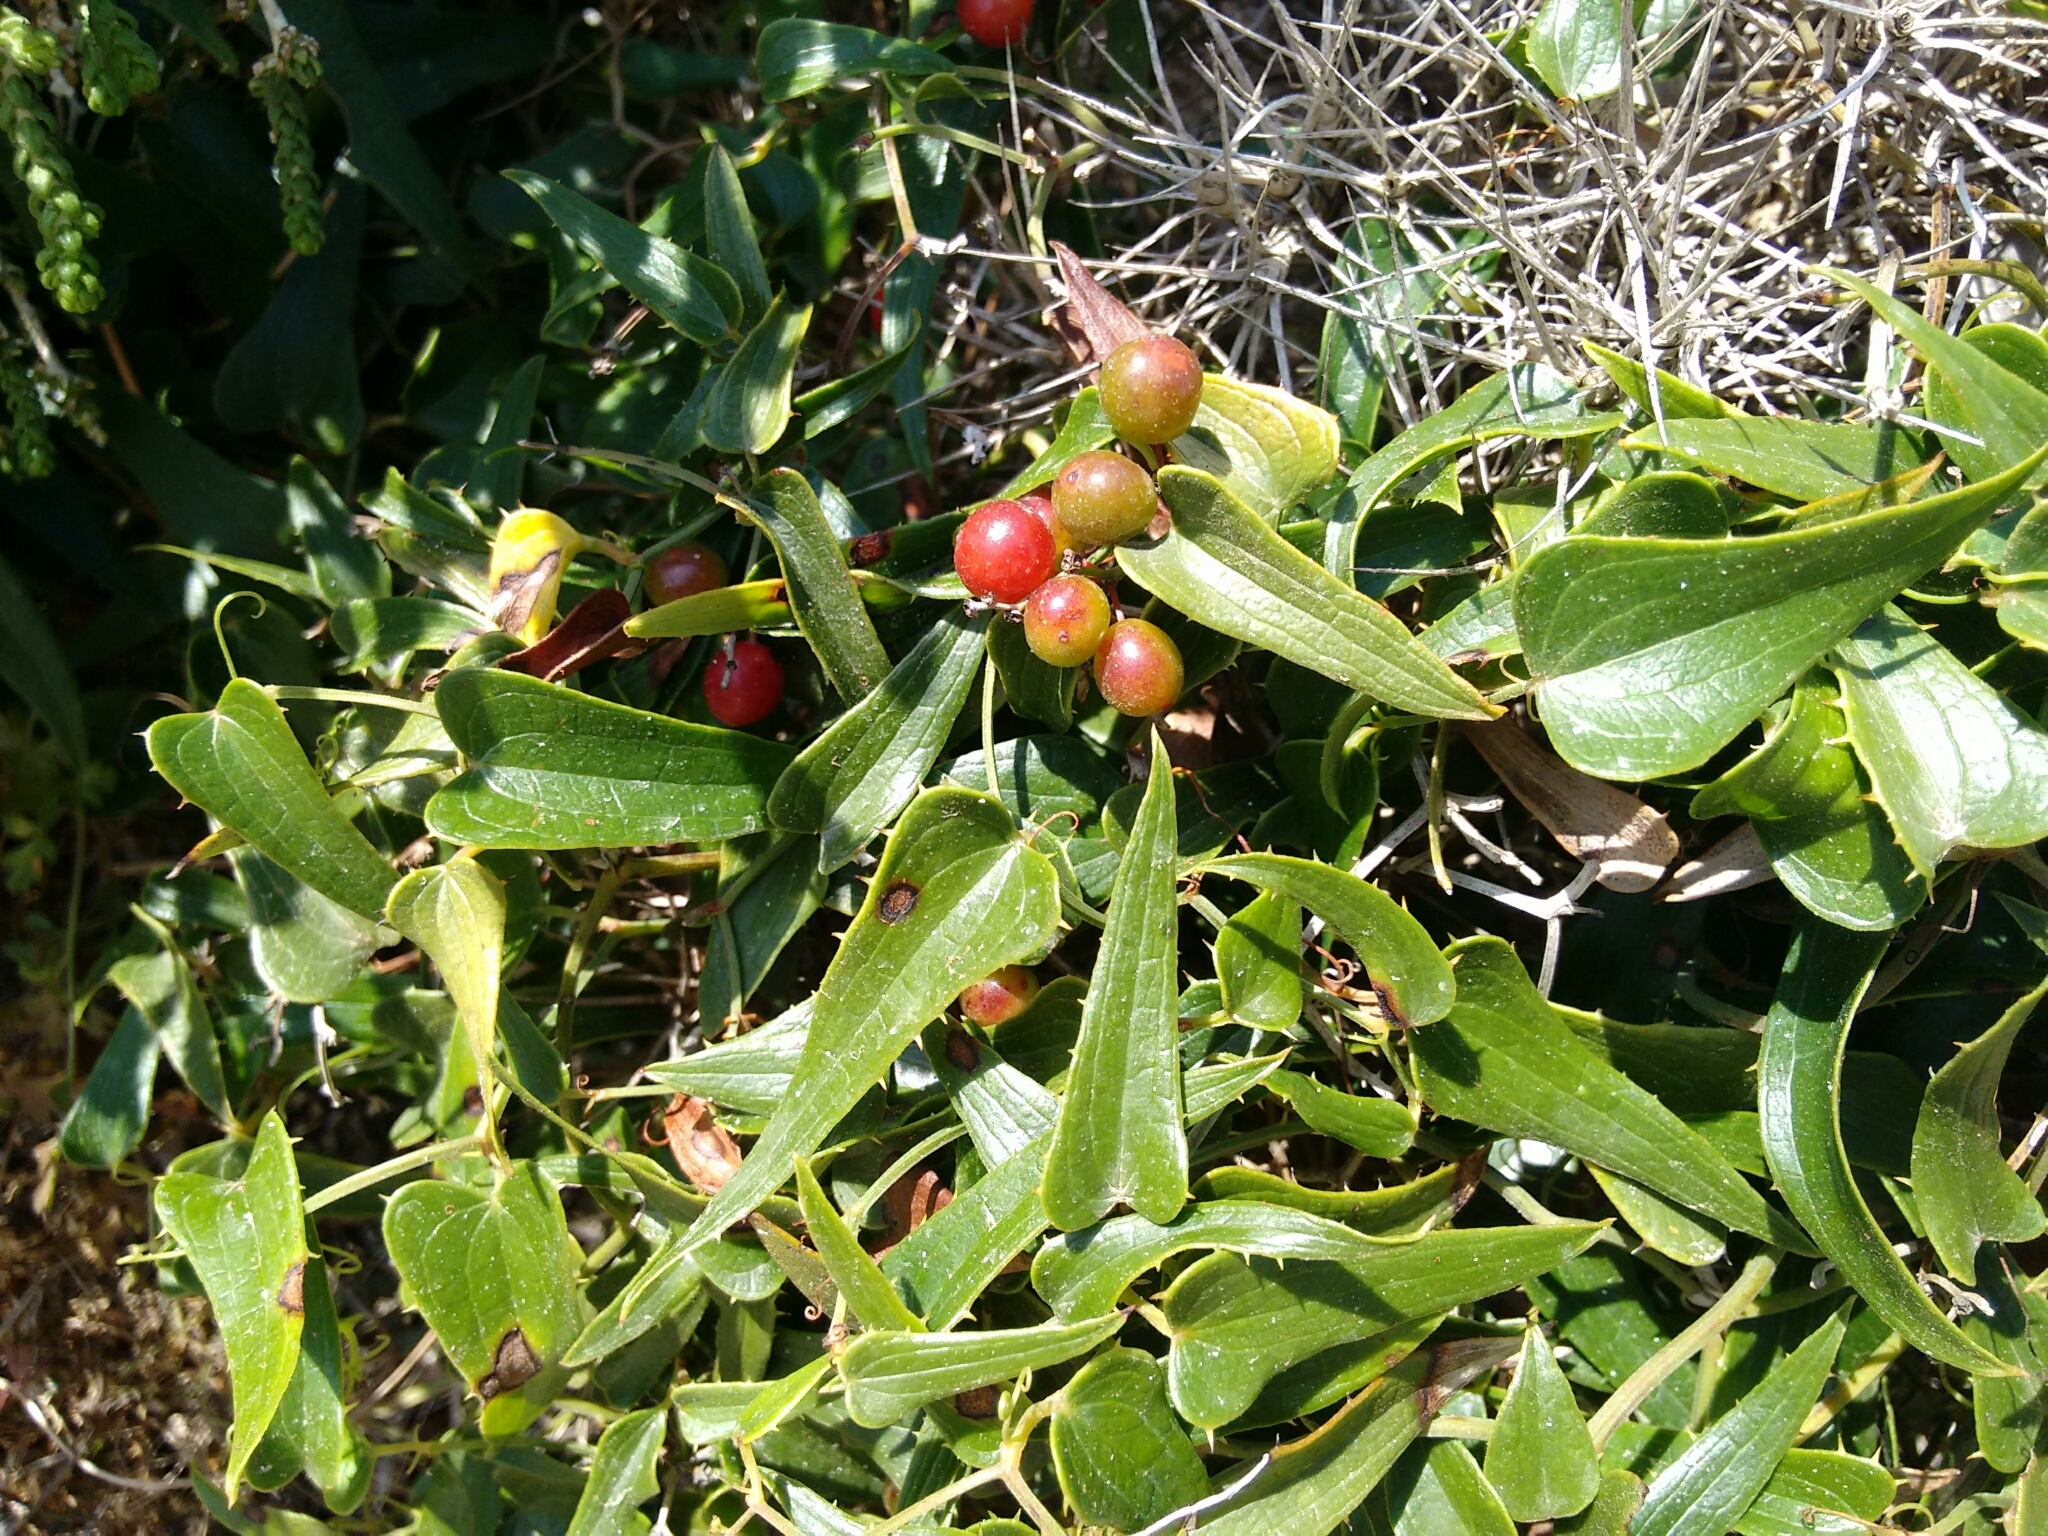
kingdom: Plantae
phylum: Tracheophyta
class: Liliopsida
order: Liliales
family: Smilacaceae
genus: Smilax
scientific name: Smilax aspera
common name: Common smilax
